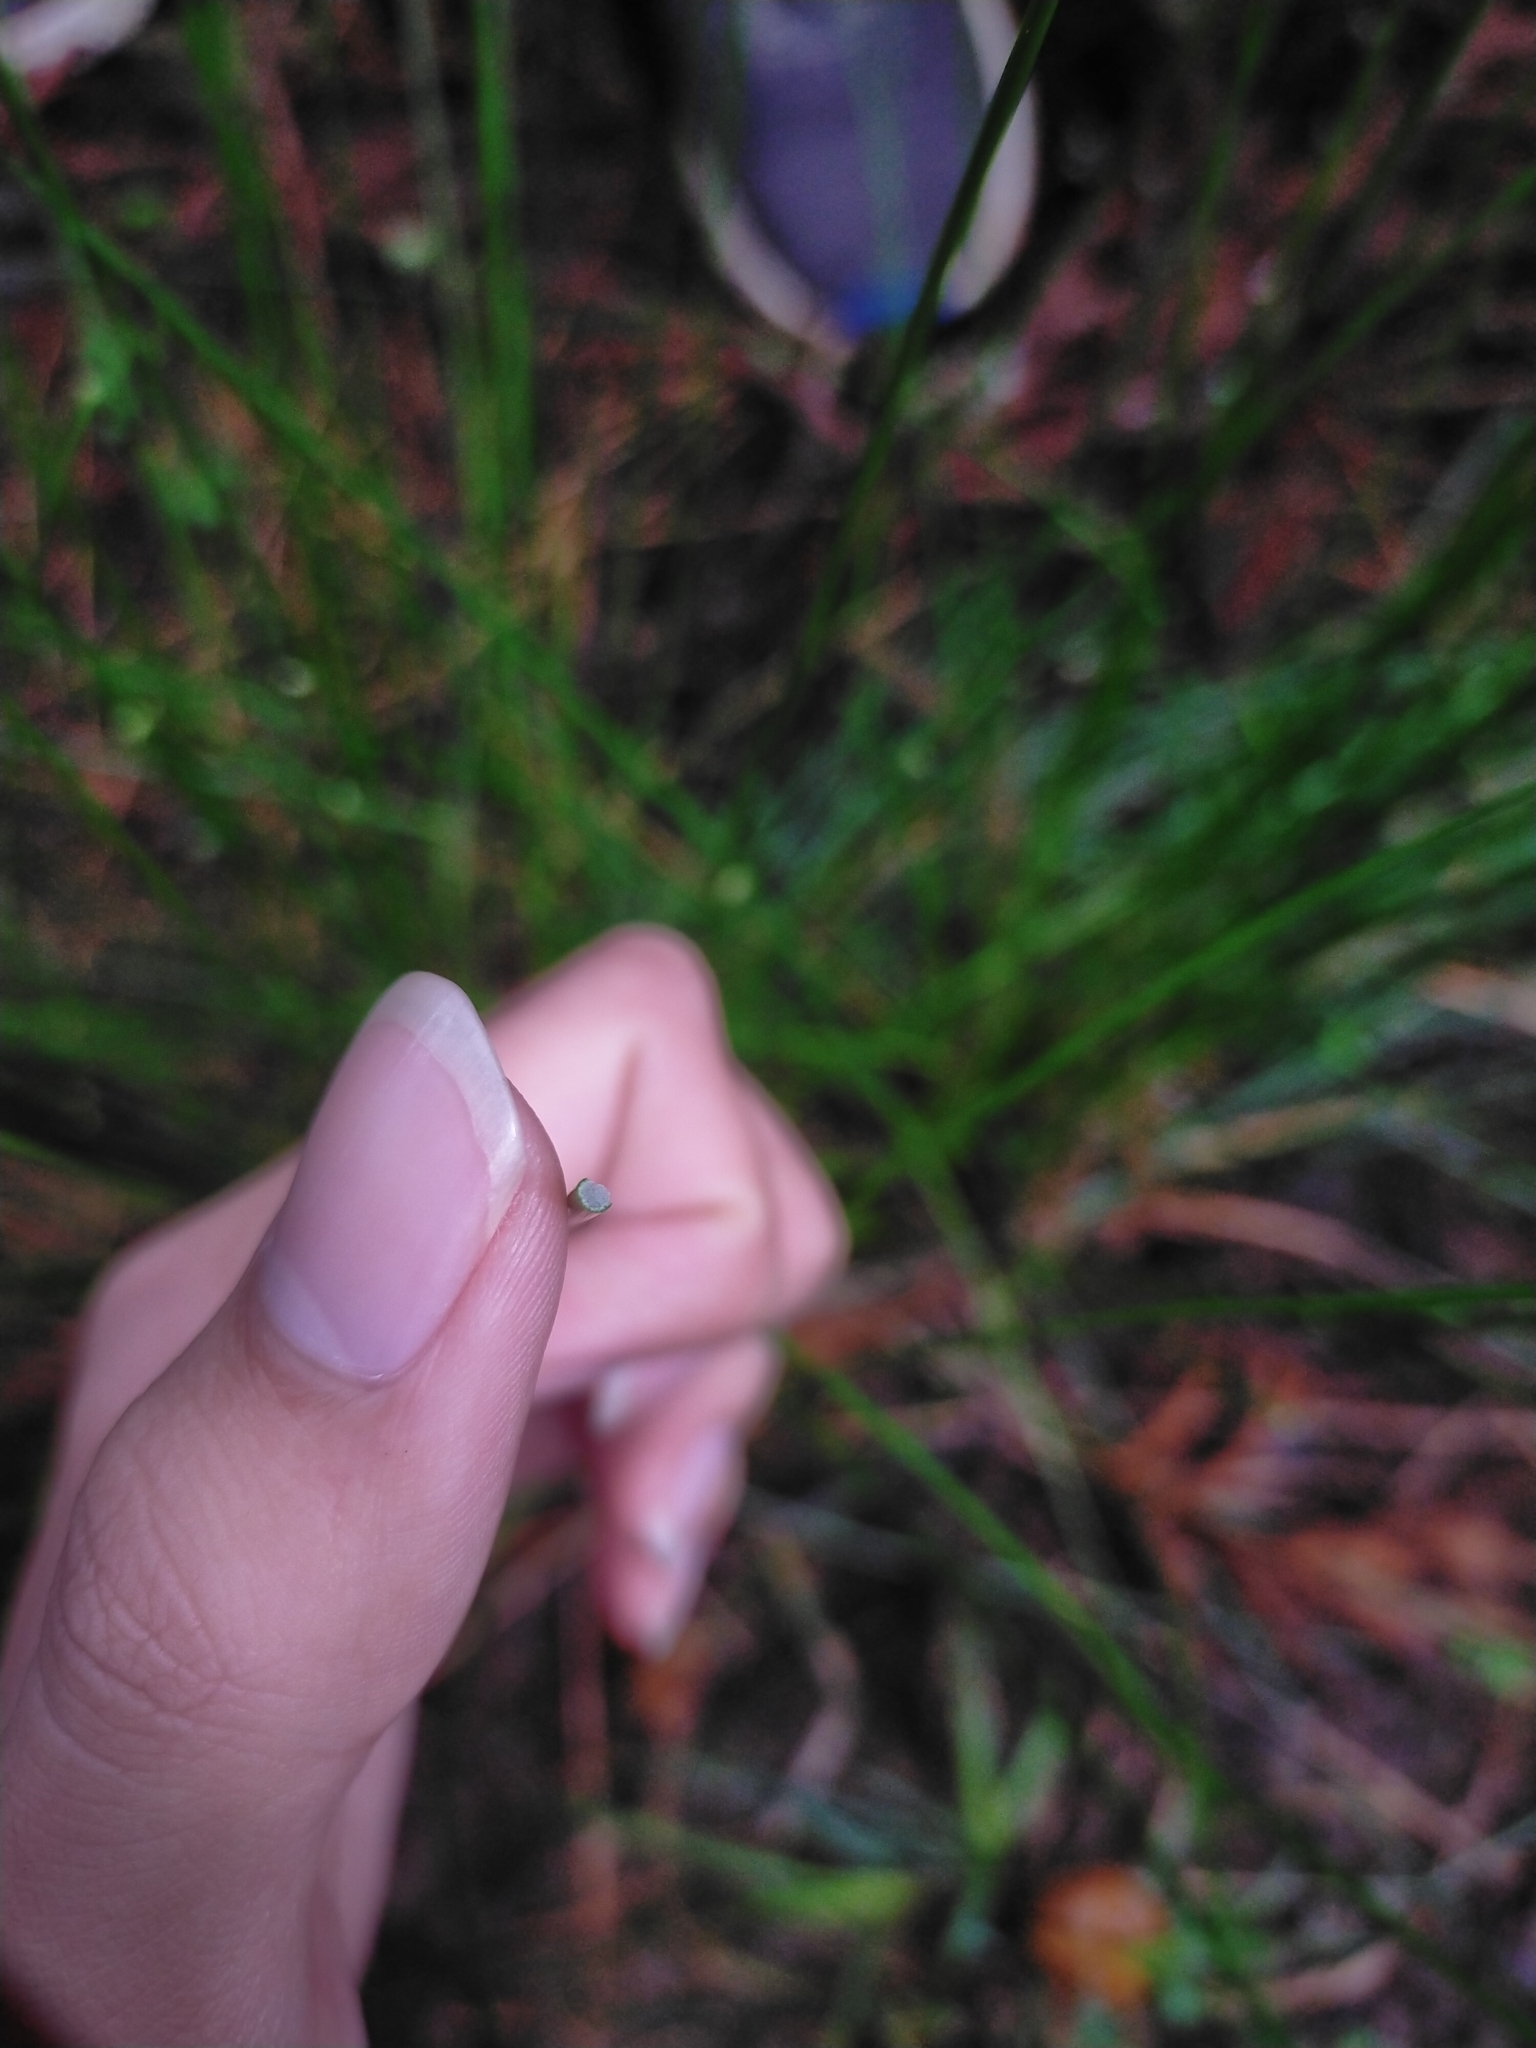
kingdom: Plantae
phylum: Tracheophyta
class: Liliopsida
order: Poales
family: Juncaceae
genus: Juncus
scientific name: Juncus effusus
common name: Soft rush
